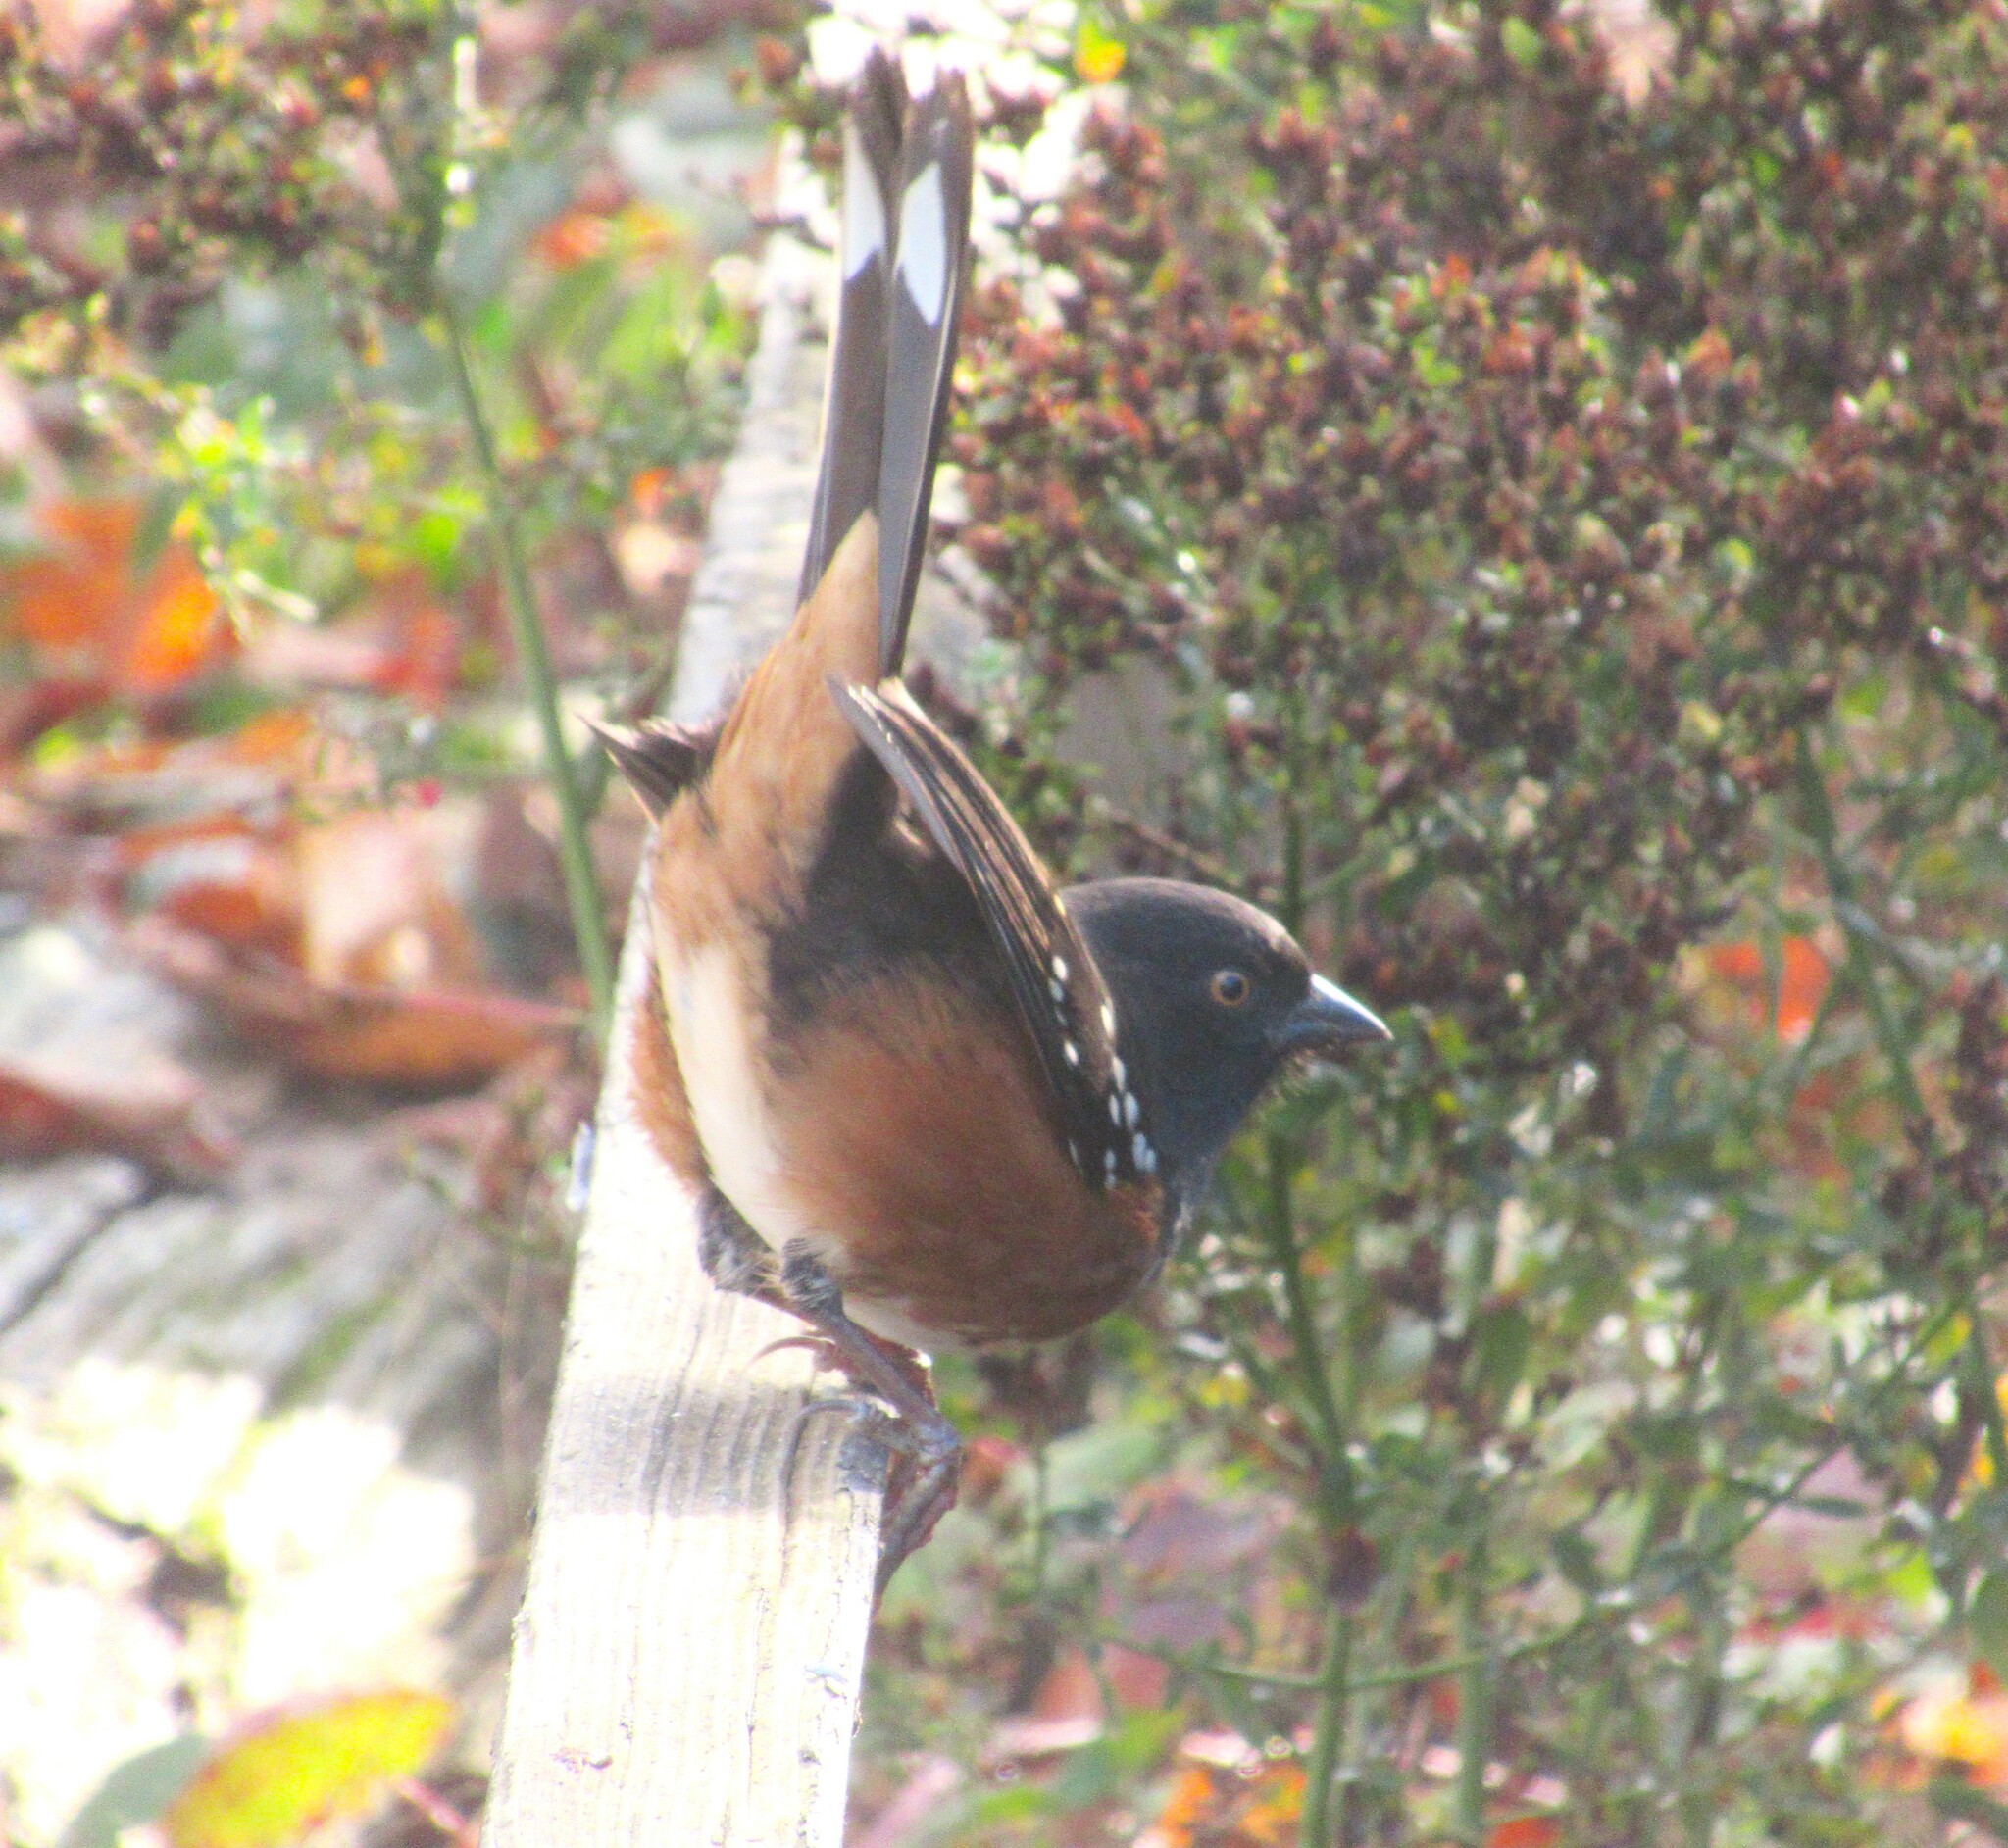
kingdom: Animalia
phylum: Chordata
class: Aves
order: Passeriformes
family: Passerellidae
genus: Pipilo
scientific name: Pipilo maculatus
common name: Spotted towhee
